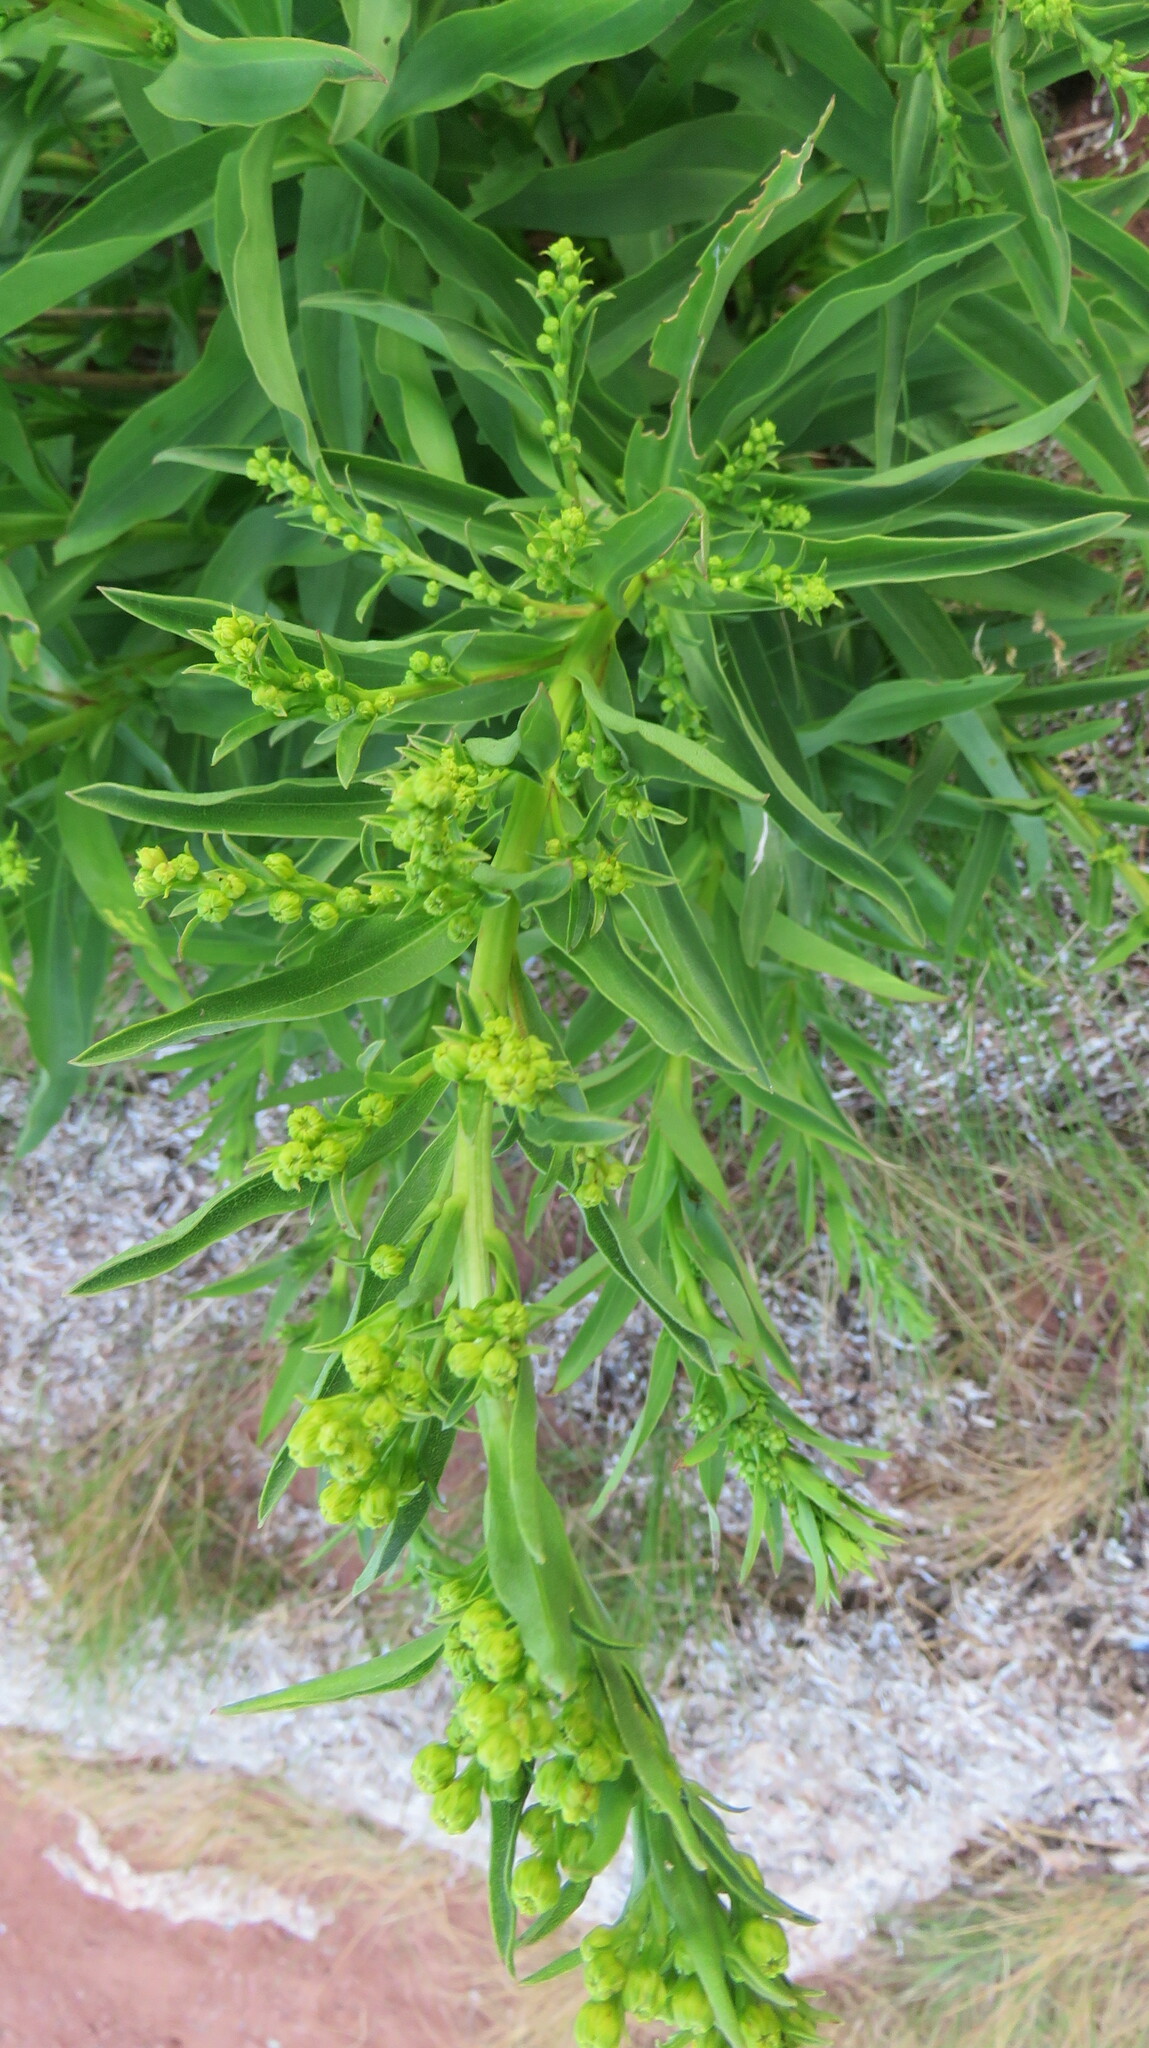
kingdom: Plantae
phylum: Tracheophyta
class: Magnoliopsida
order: Asterales
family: Asteraceae
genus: Solidago
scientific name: Solidago sempervirens
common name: Salt-marsh goldenrod
